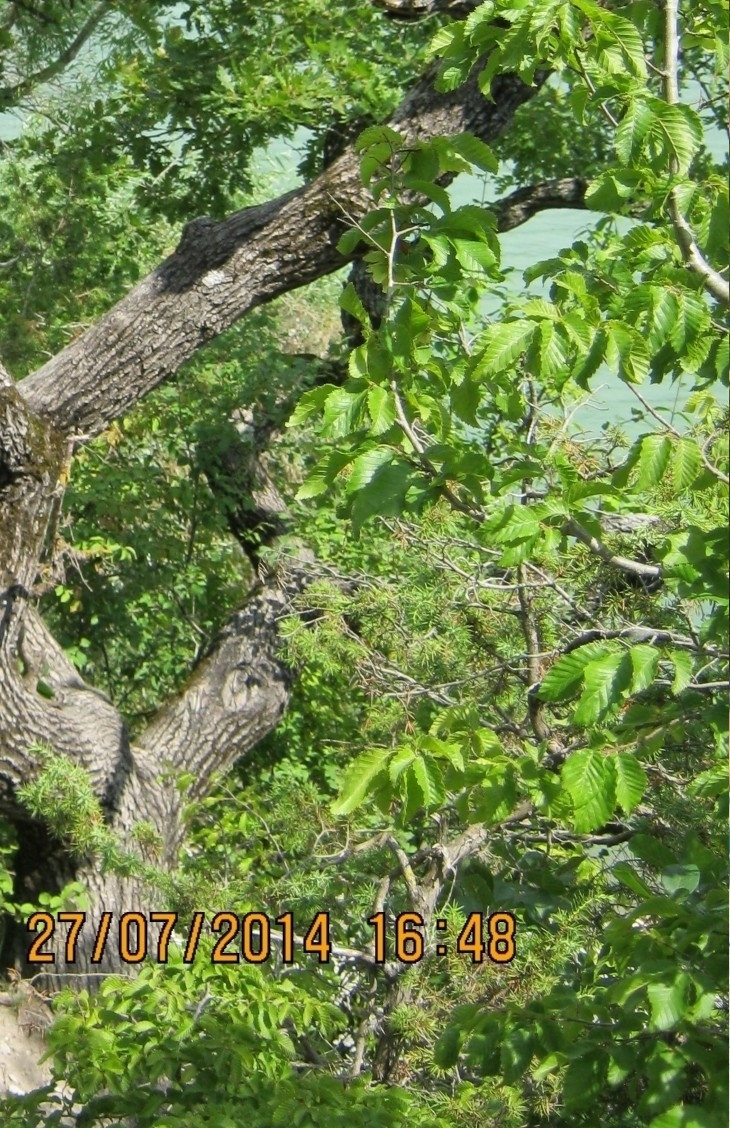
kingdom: Plantae
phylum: Tracheophyta
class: Magnoliopsida
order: Fagales
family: Betulaceae
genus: Carpinus
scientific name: Carpinus orientalis
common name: Eastern hornbeam
